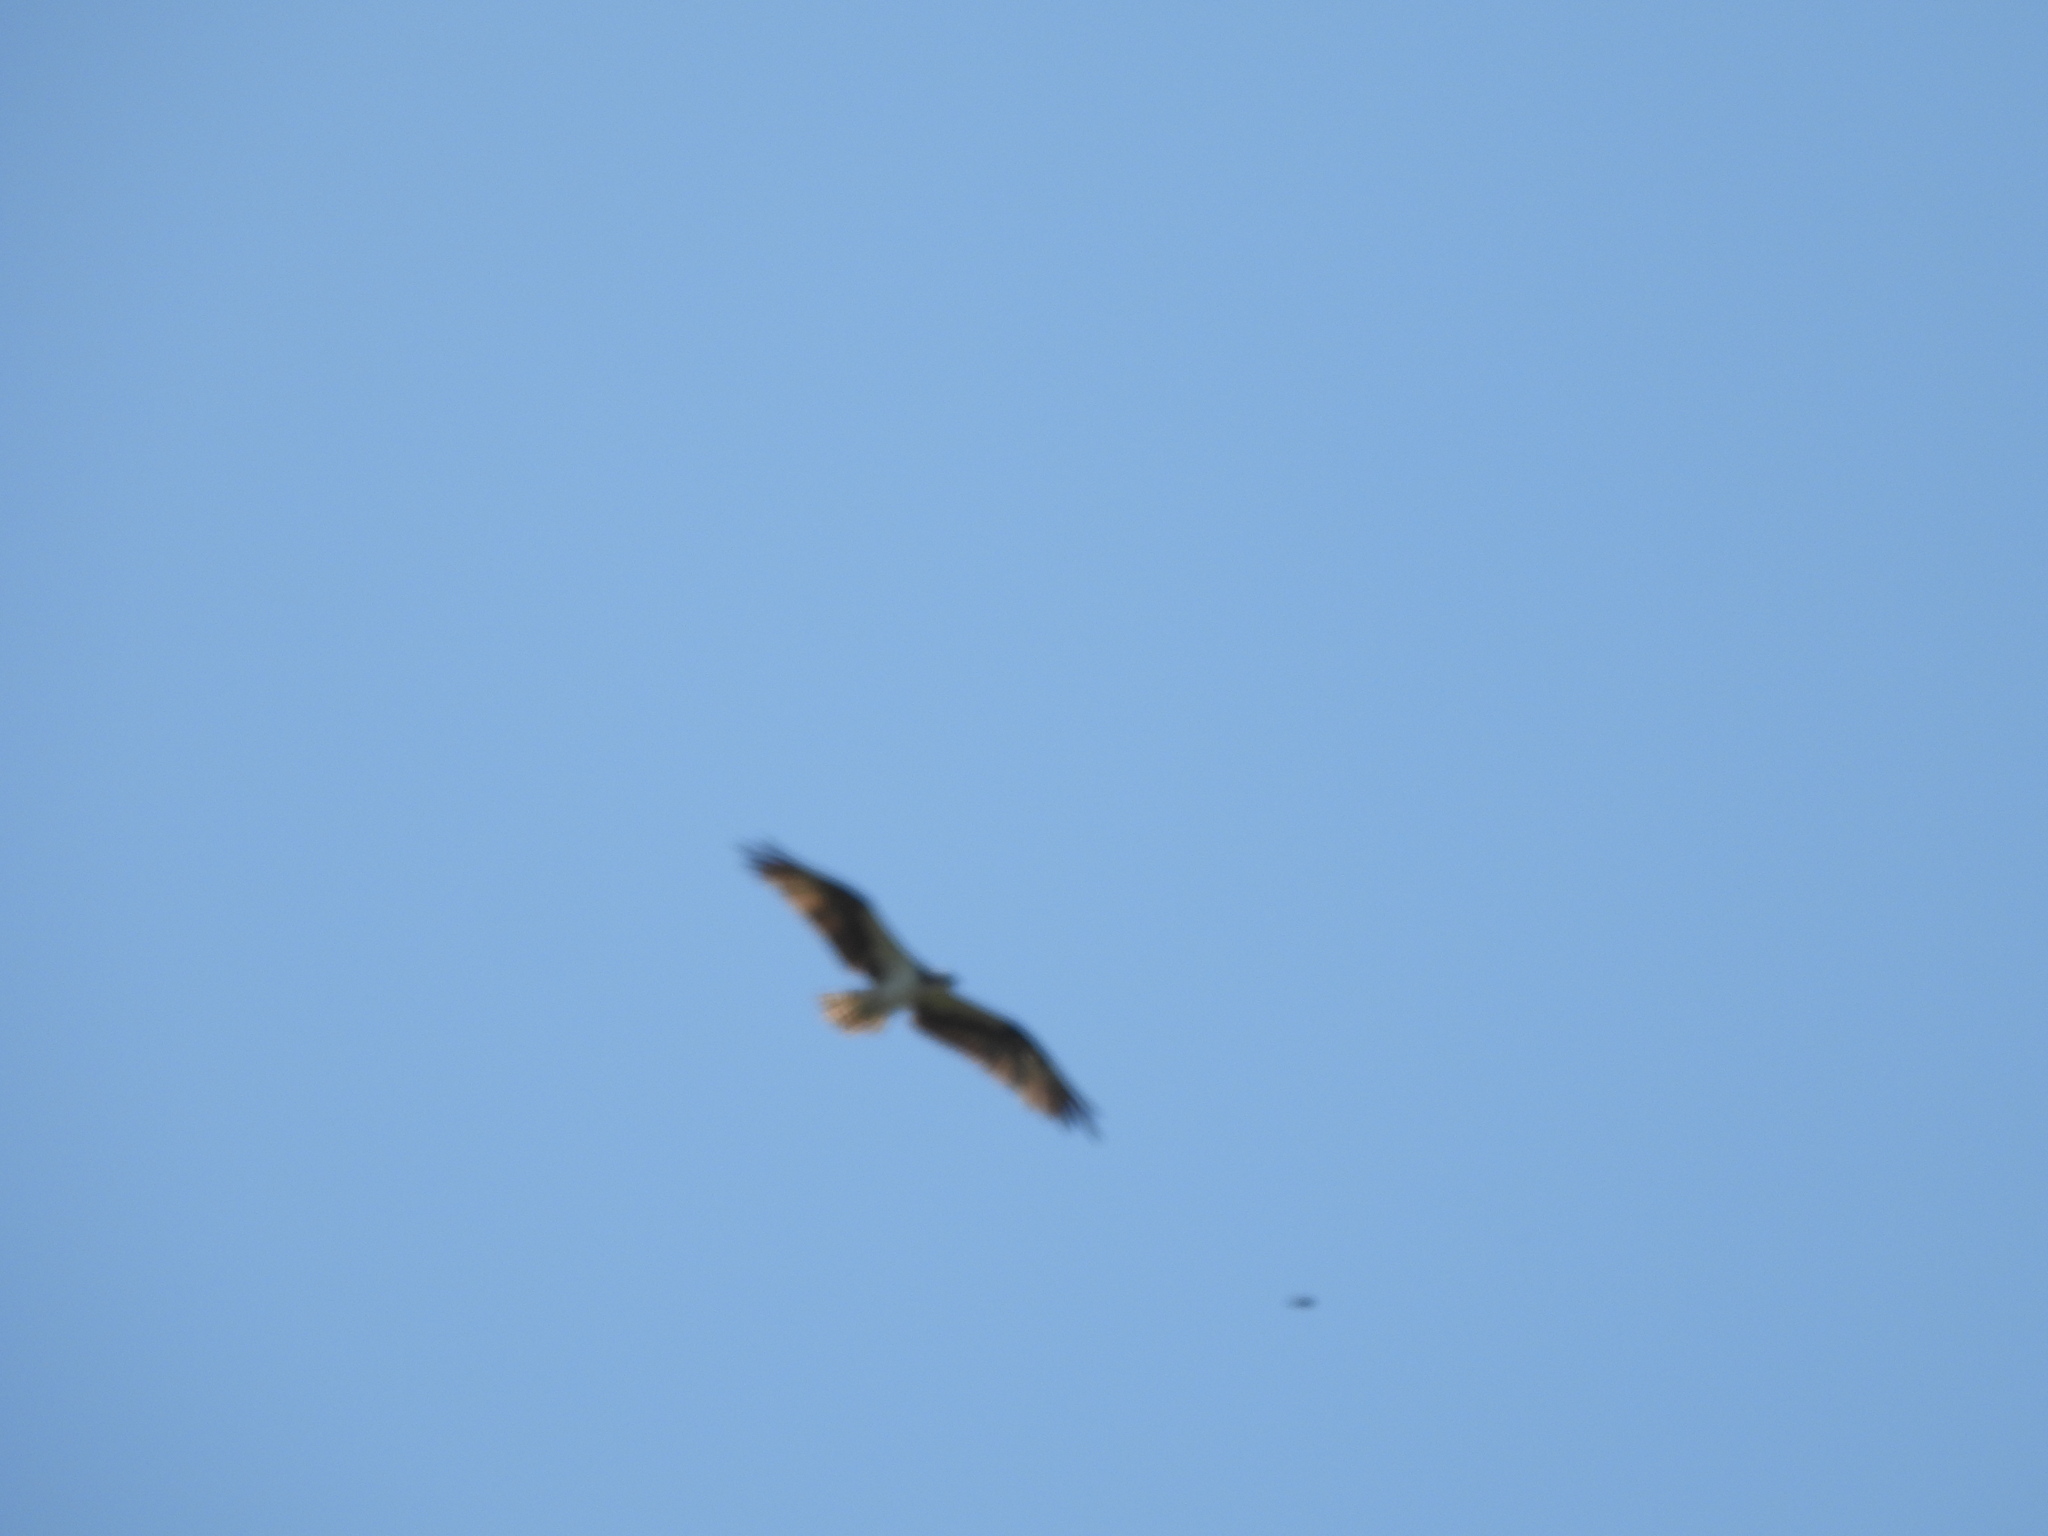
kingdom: Animalia
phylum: Chordata
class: Aves
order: Accipitriformes
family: Pandionidae
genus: Pandion
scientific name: Pandion haliaetus
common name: Osprey
